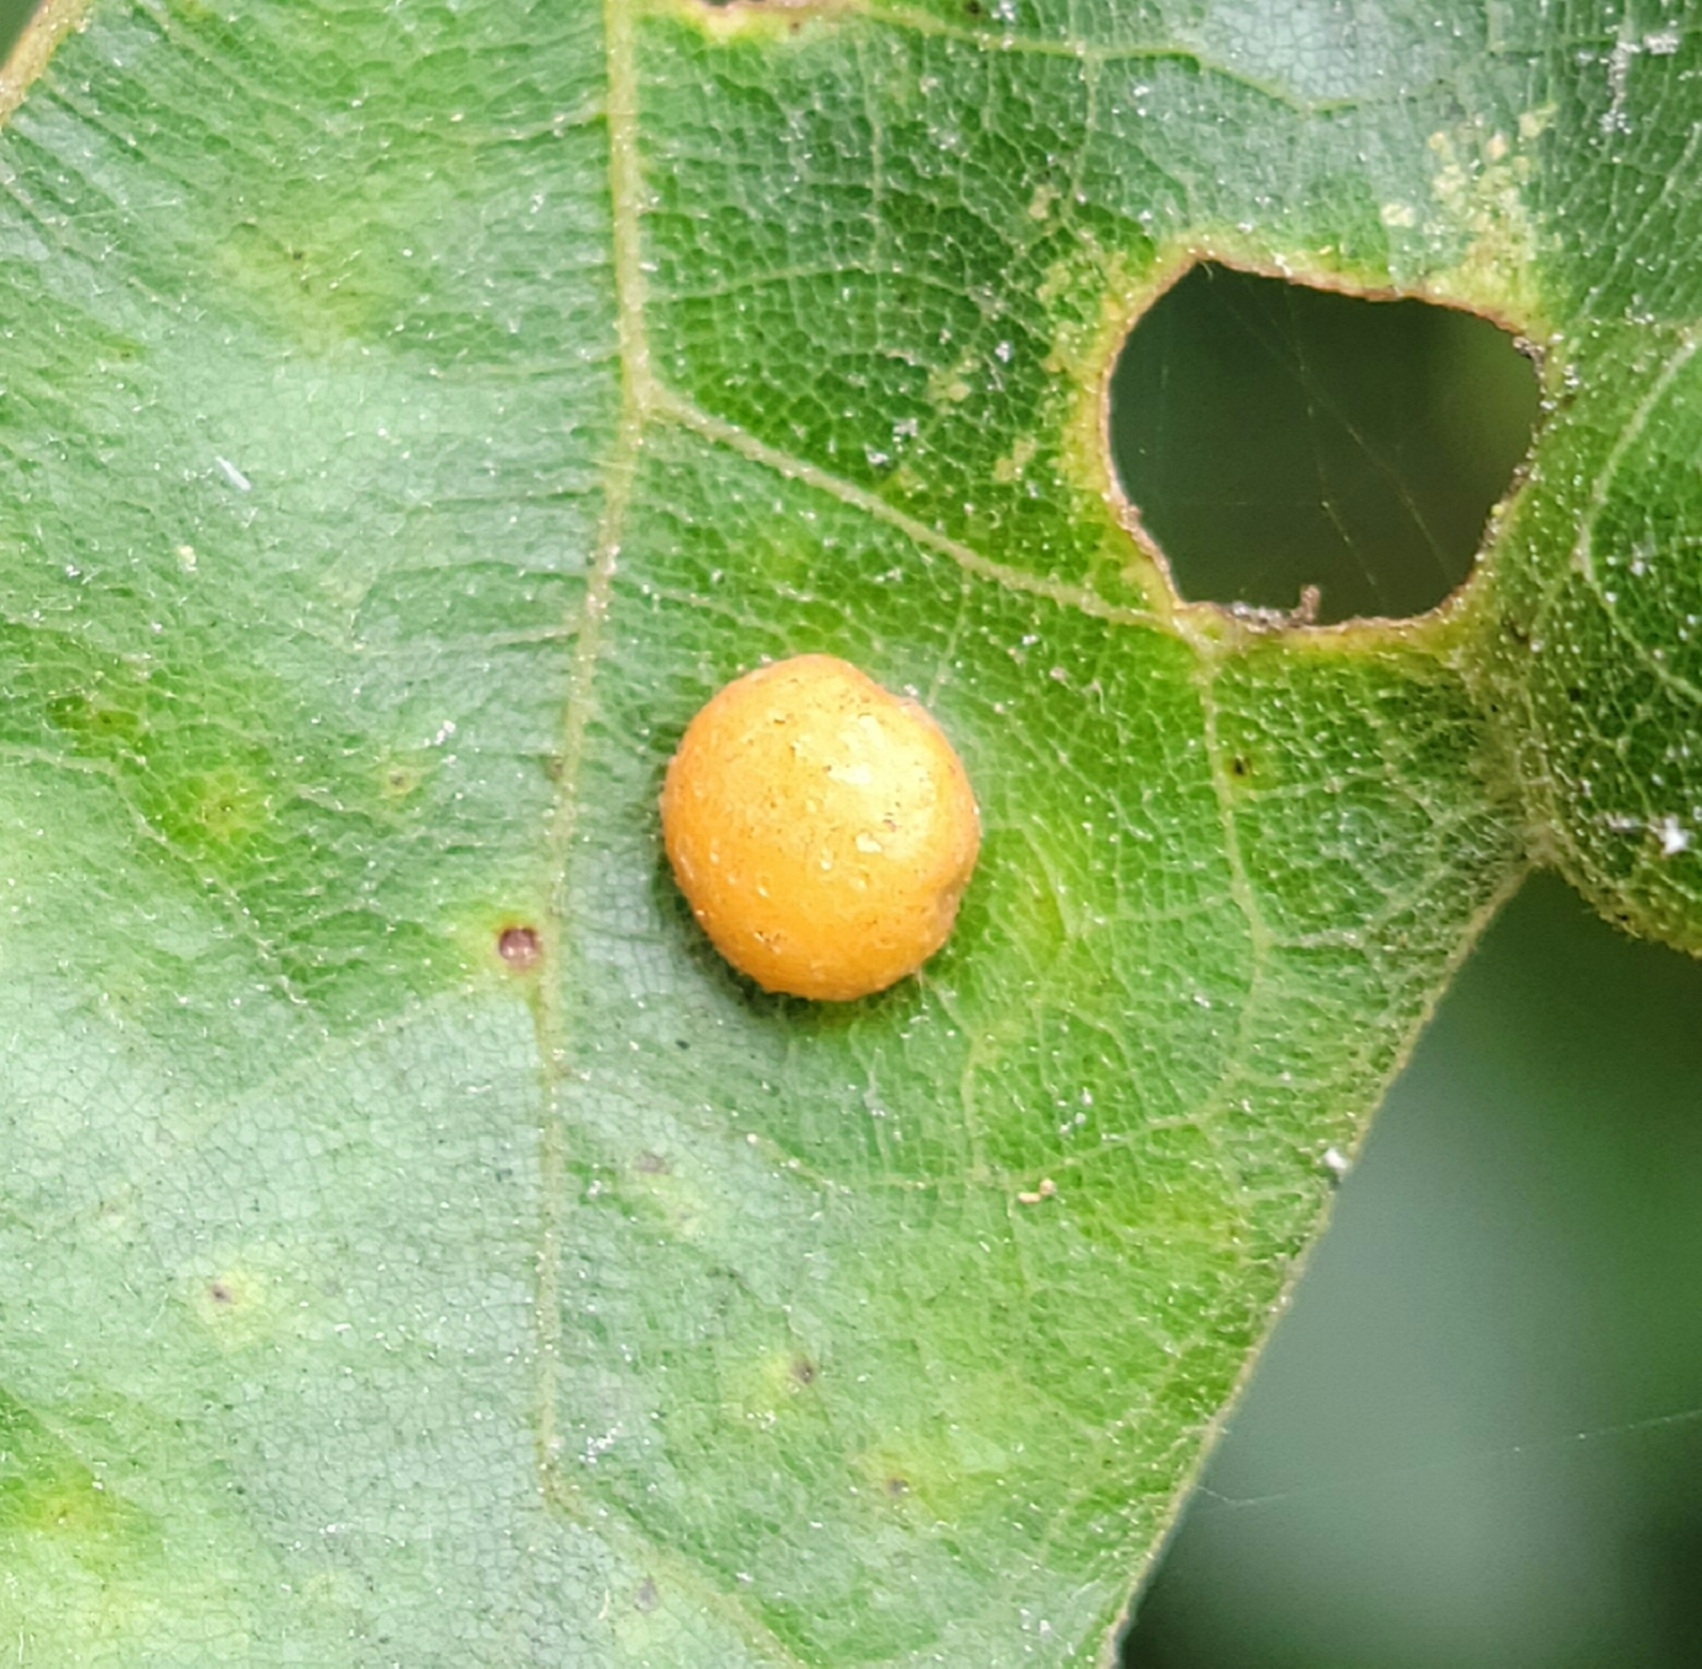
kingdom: Animalia
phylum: Arthropoda
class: Insecta
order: Diptera
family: Cecidomyiidae
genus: Polystepha
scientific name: Polystepha pilulae
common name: Oak leaf gall midge
